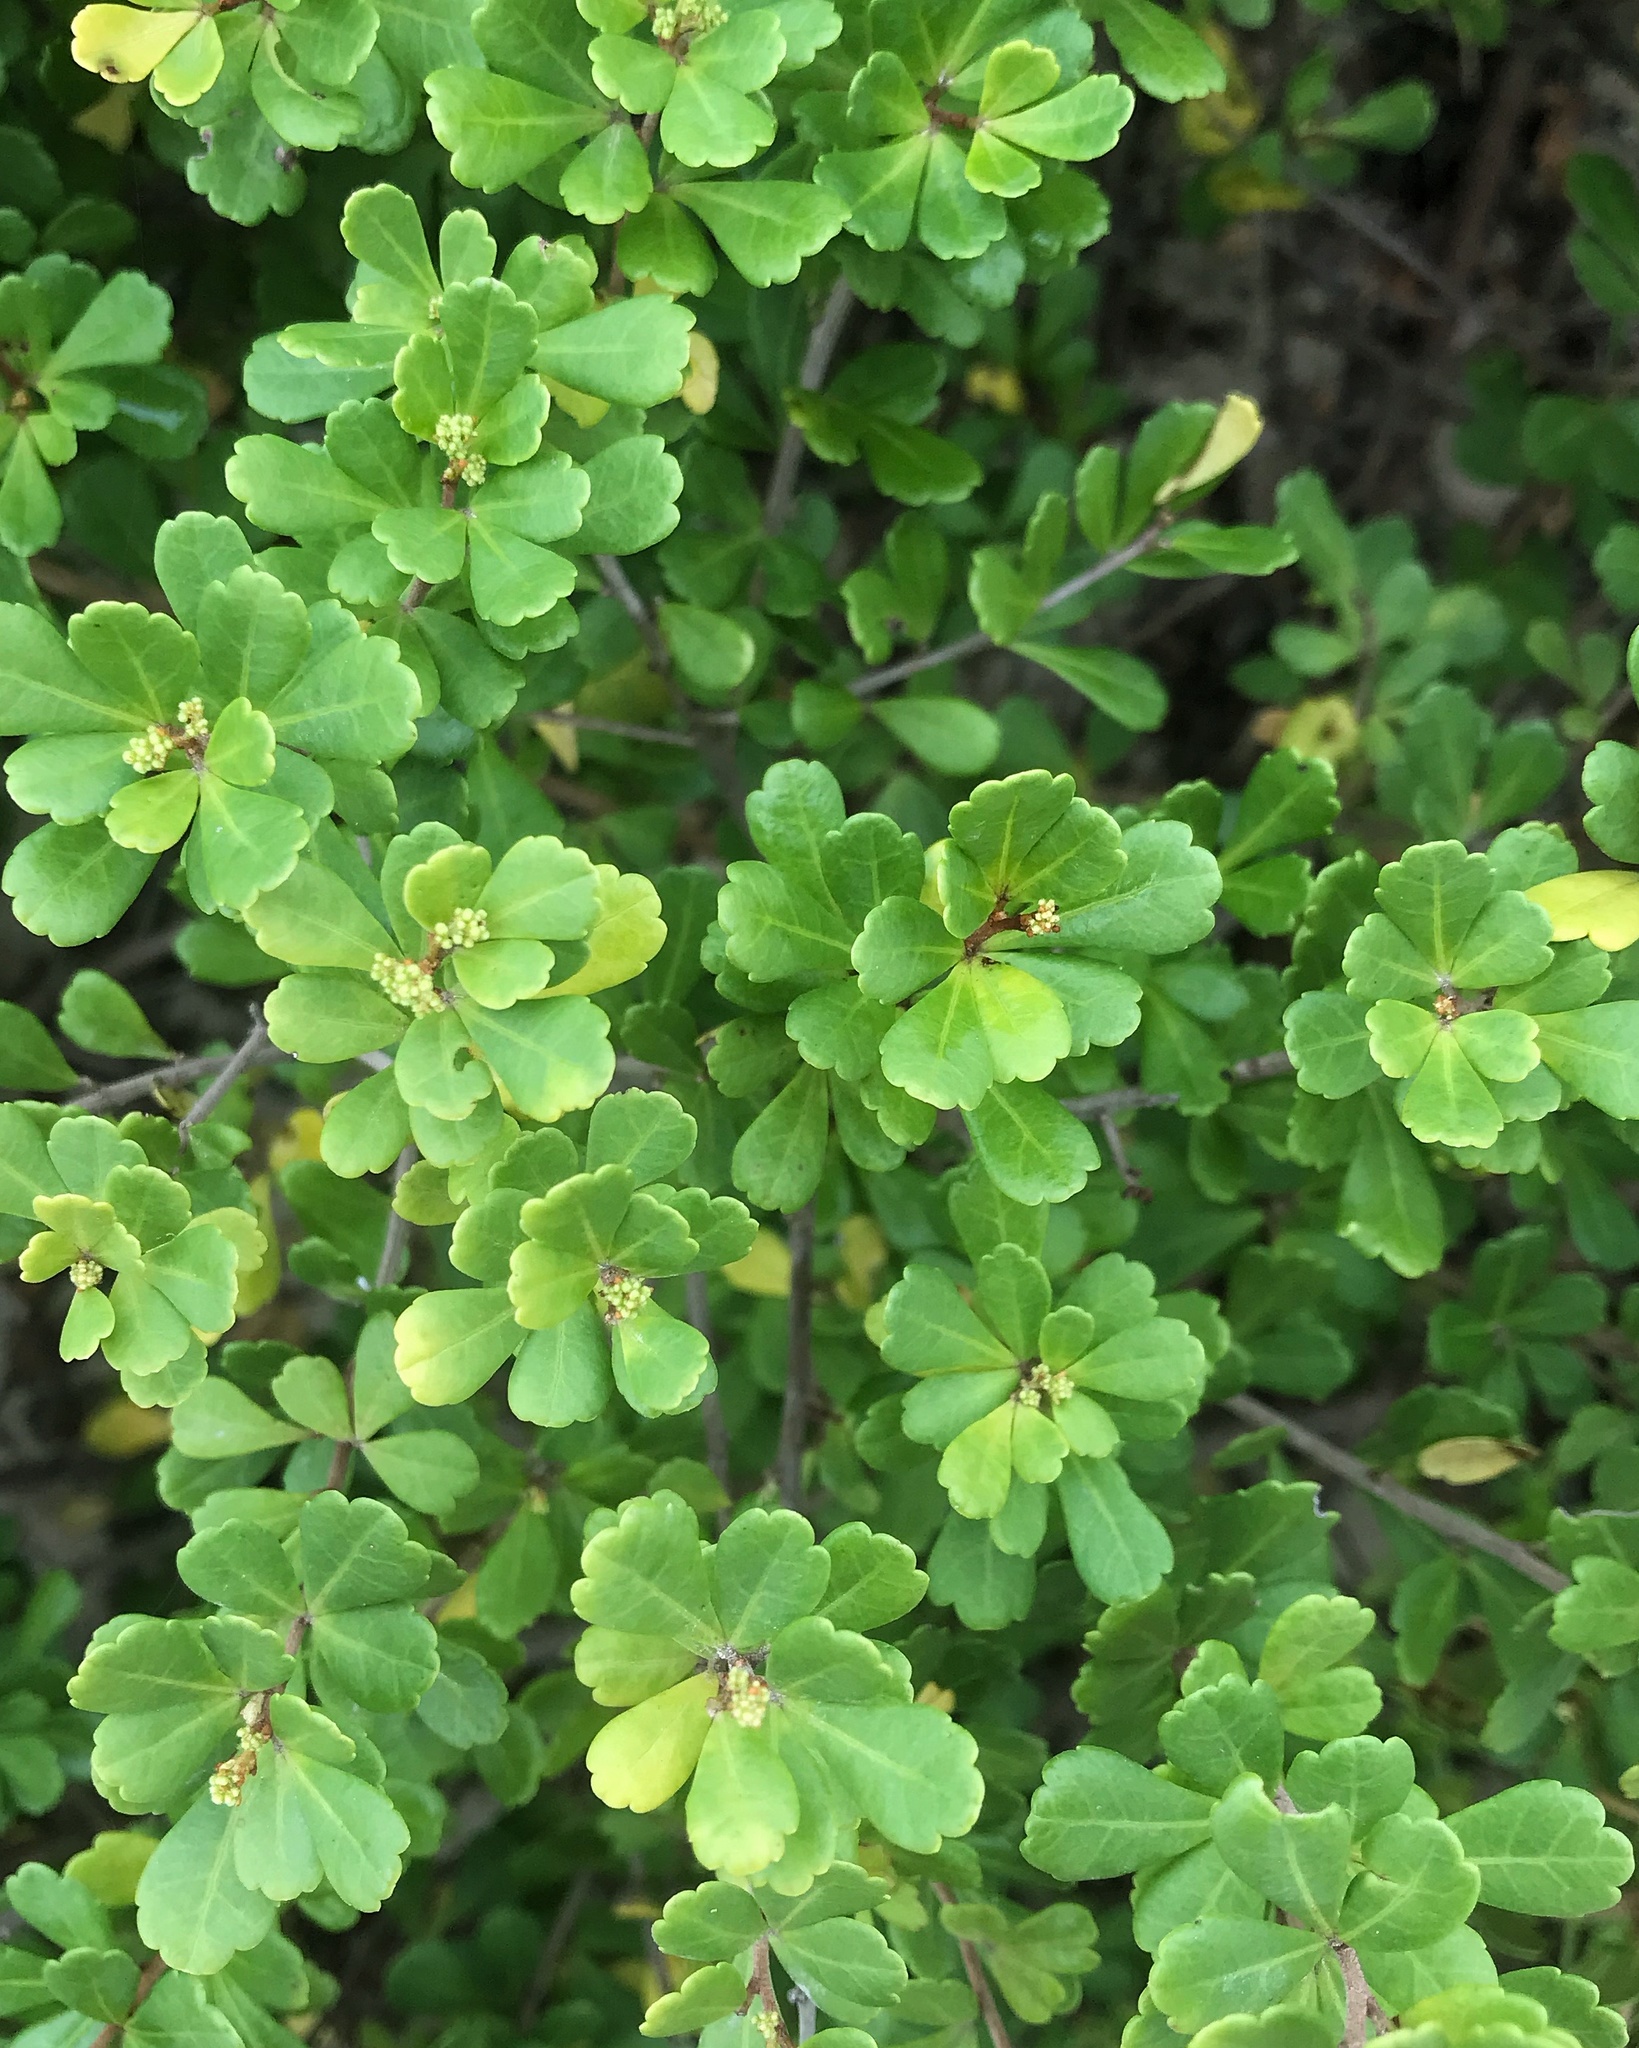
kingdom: Plantae
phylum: Tracheophyta
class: Magnoliopsida
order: Sapindales
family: Anacardiaceae
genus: Searsia
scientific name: Searsia crenata
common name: Crowberry
